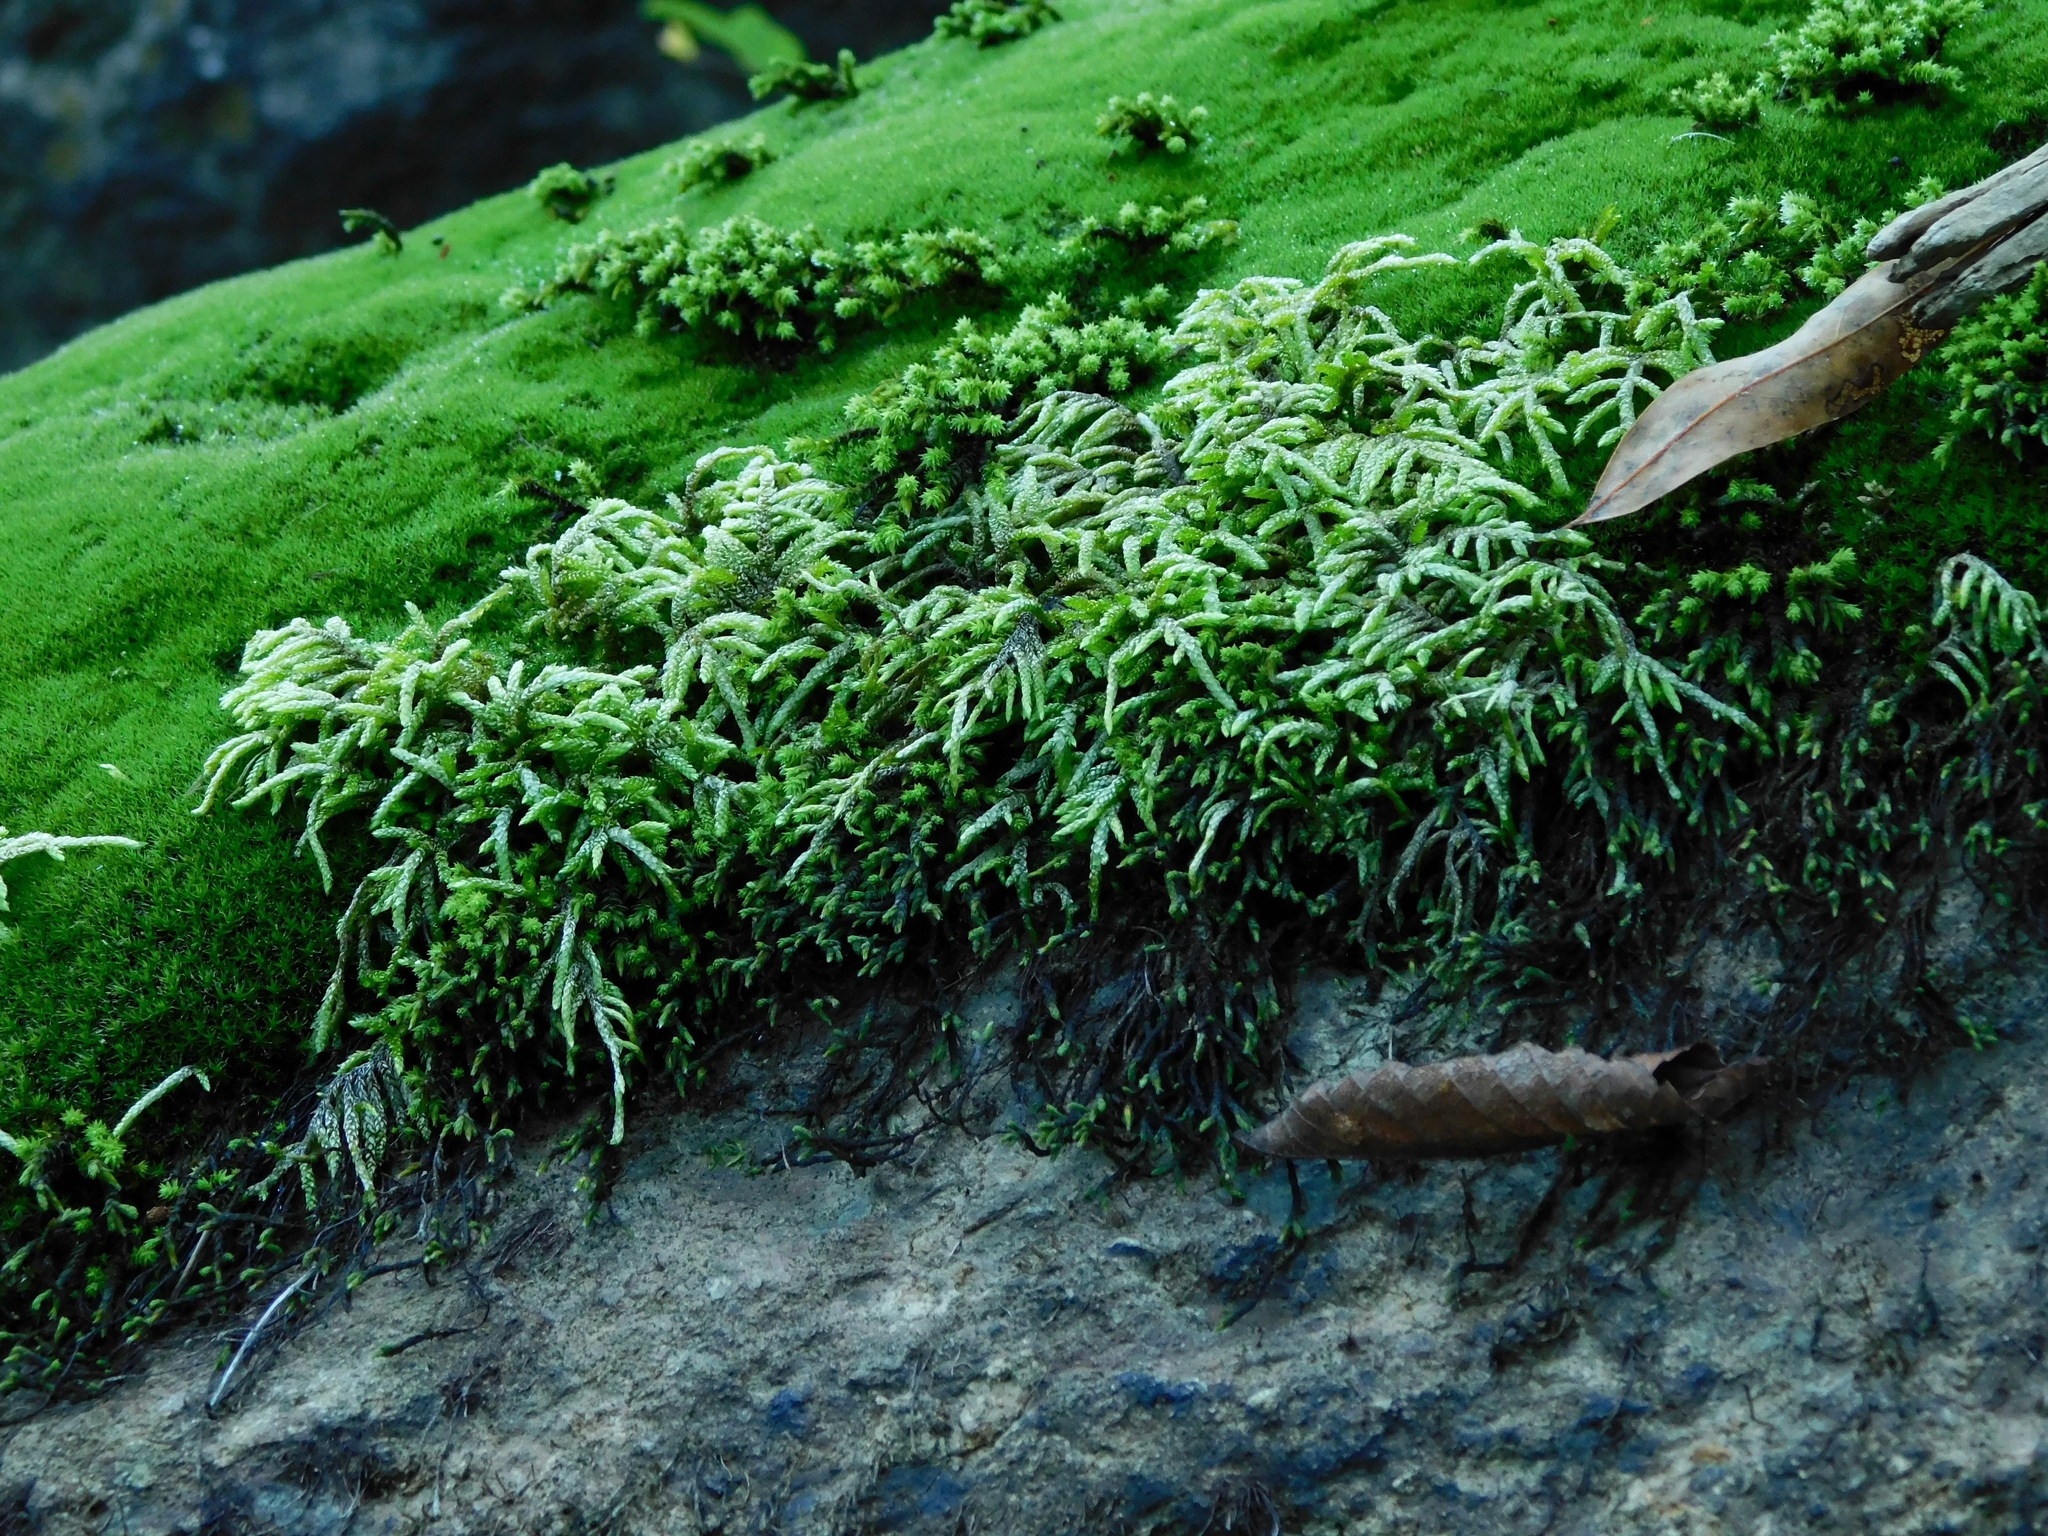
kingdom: Plantae
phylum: Bryophyta
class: Bryopsida
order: Hypnales
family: Entodontaceae
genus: Entodon
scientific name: Entodon seductrix
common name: Round-stemmed entodon moss
